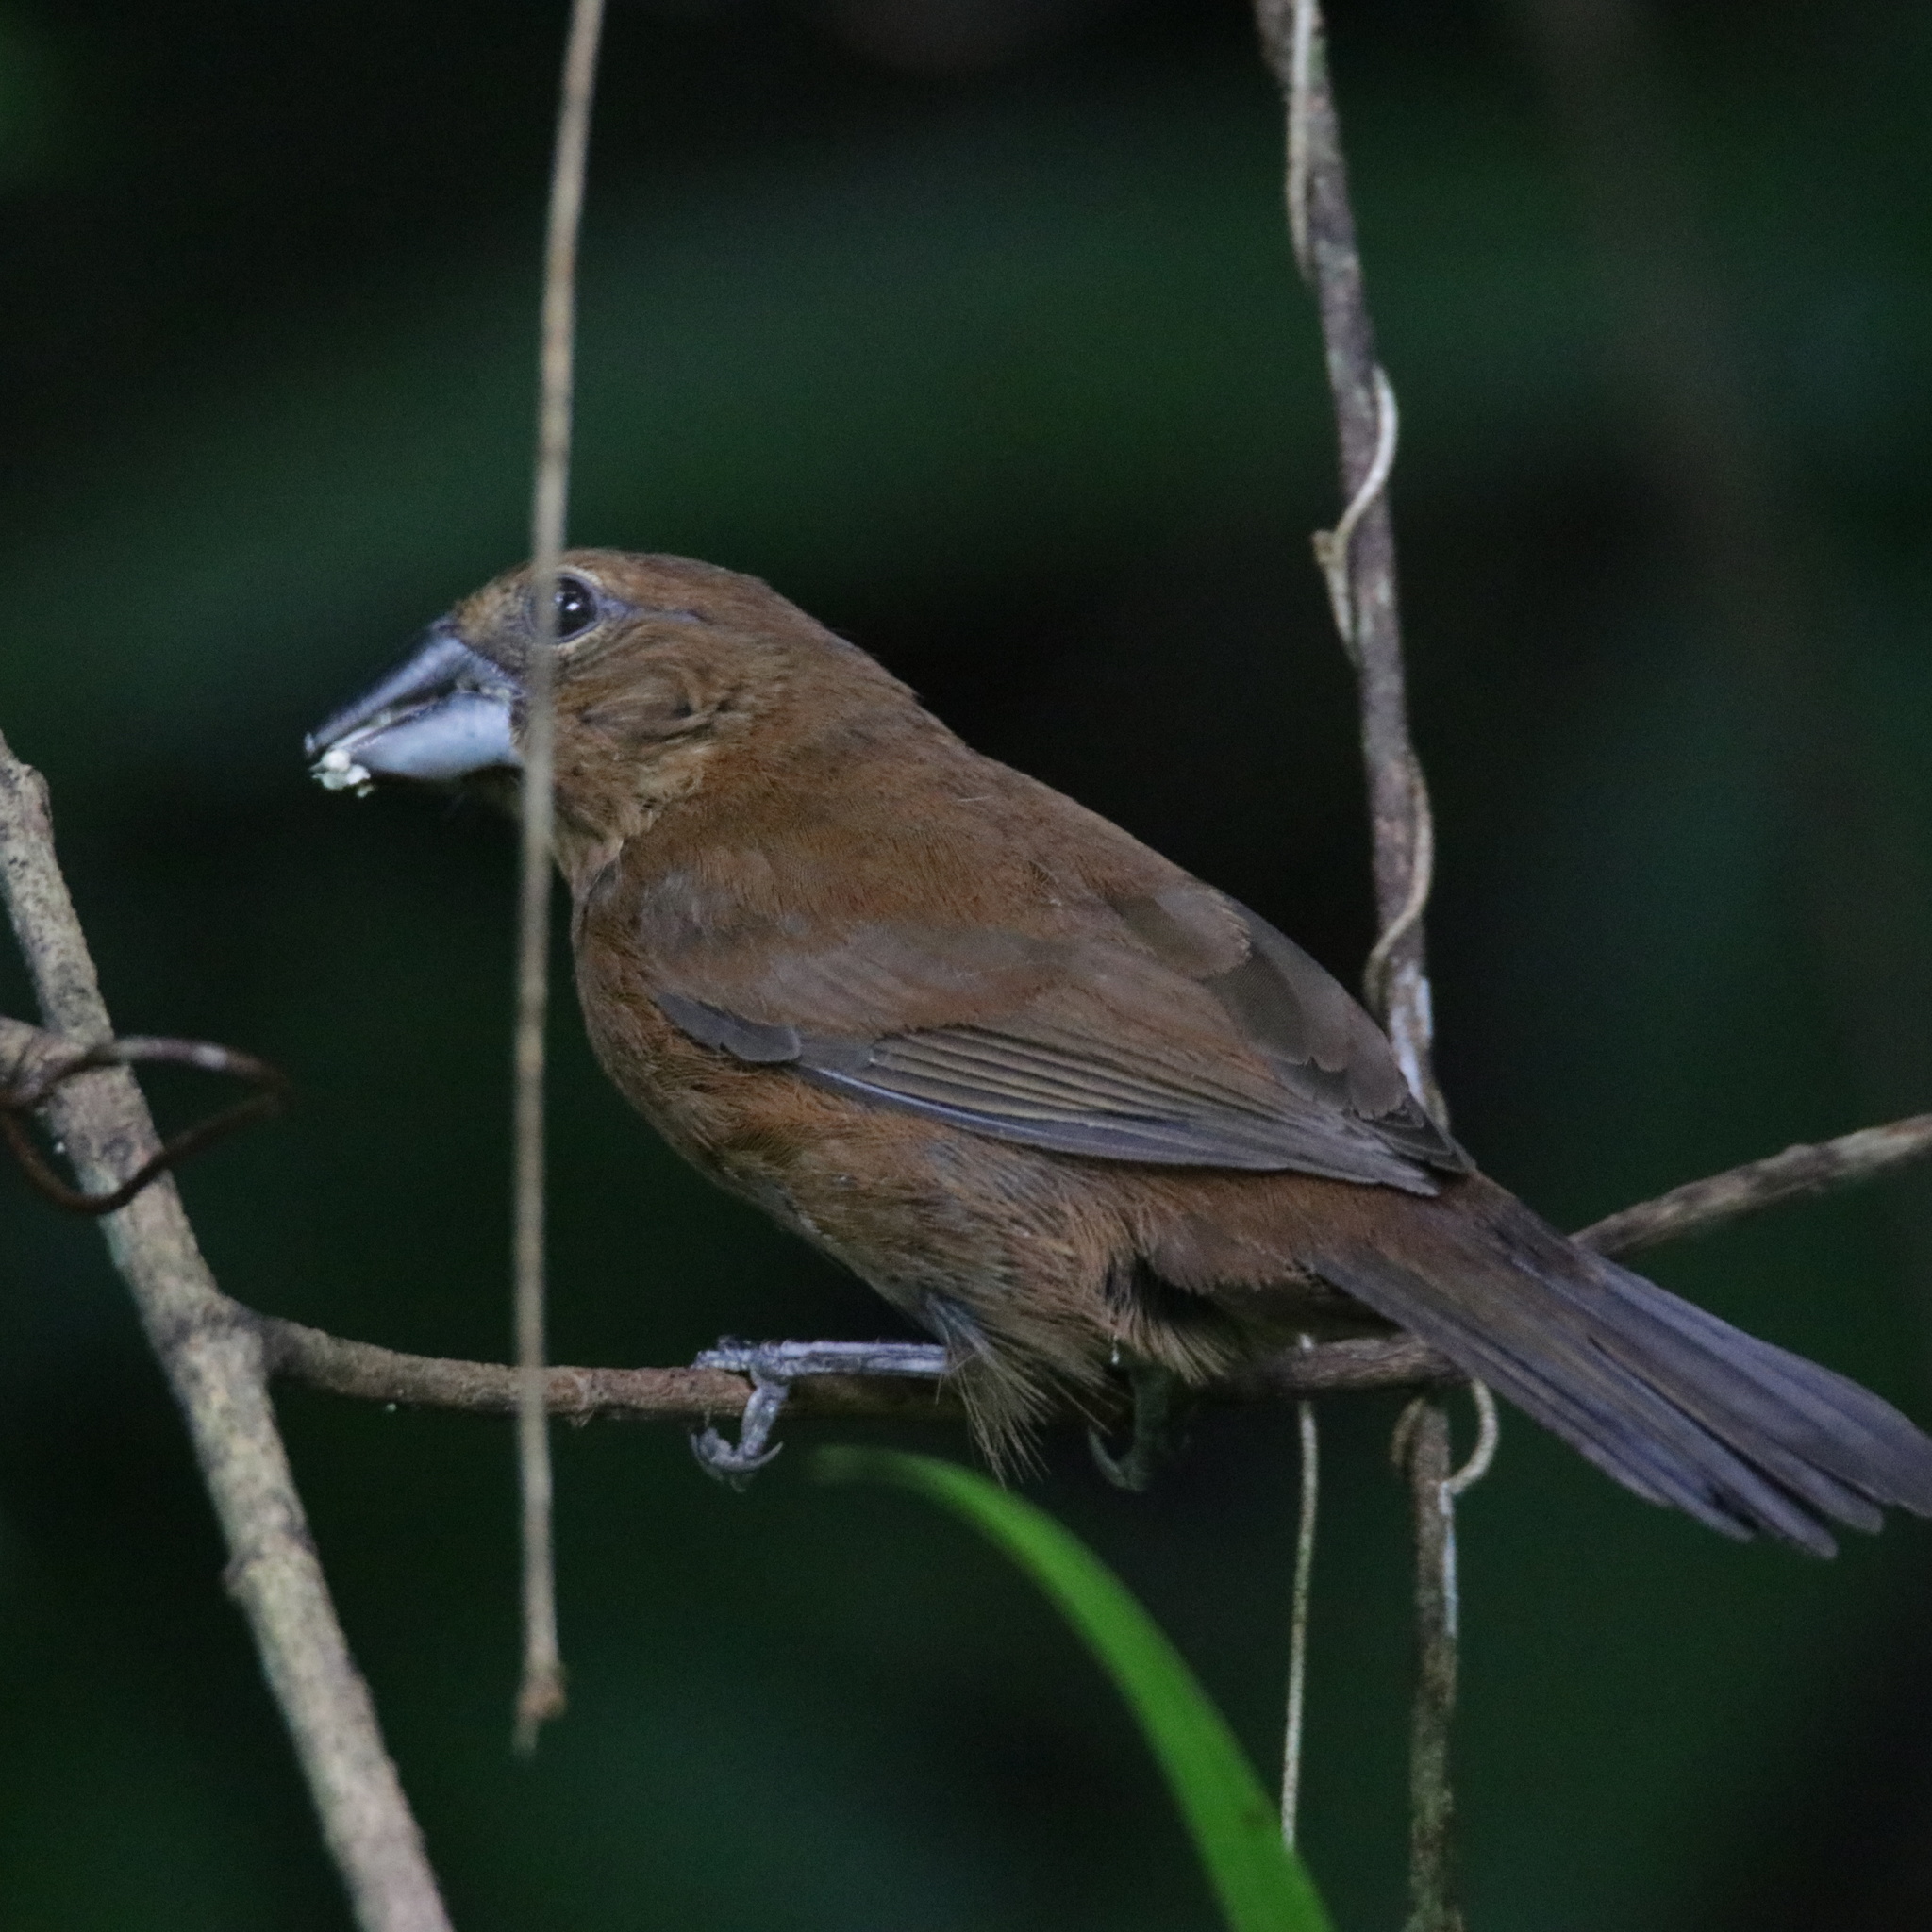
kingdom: Animalia
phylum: Chordata
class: Aves
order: Passeriformes
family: Cardinalidae
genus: Cyanocompsa
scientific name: Cyanocompsa cyanoides
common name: Blue-black grosbeak
